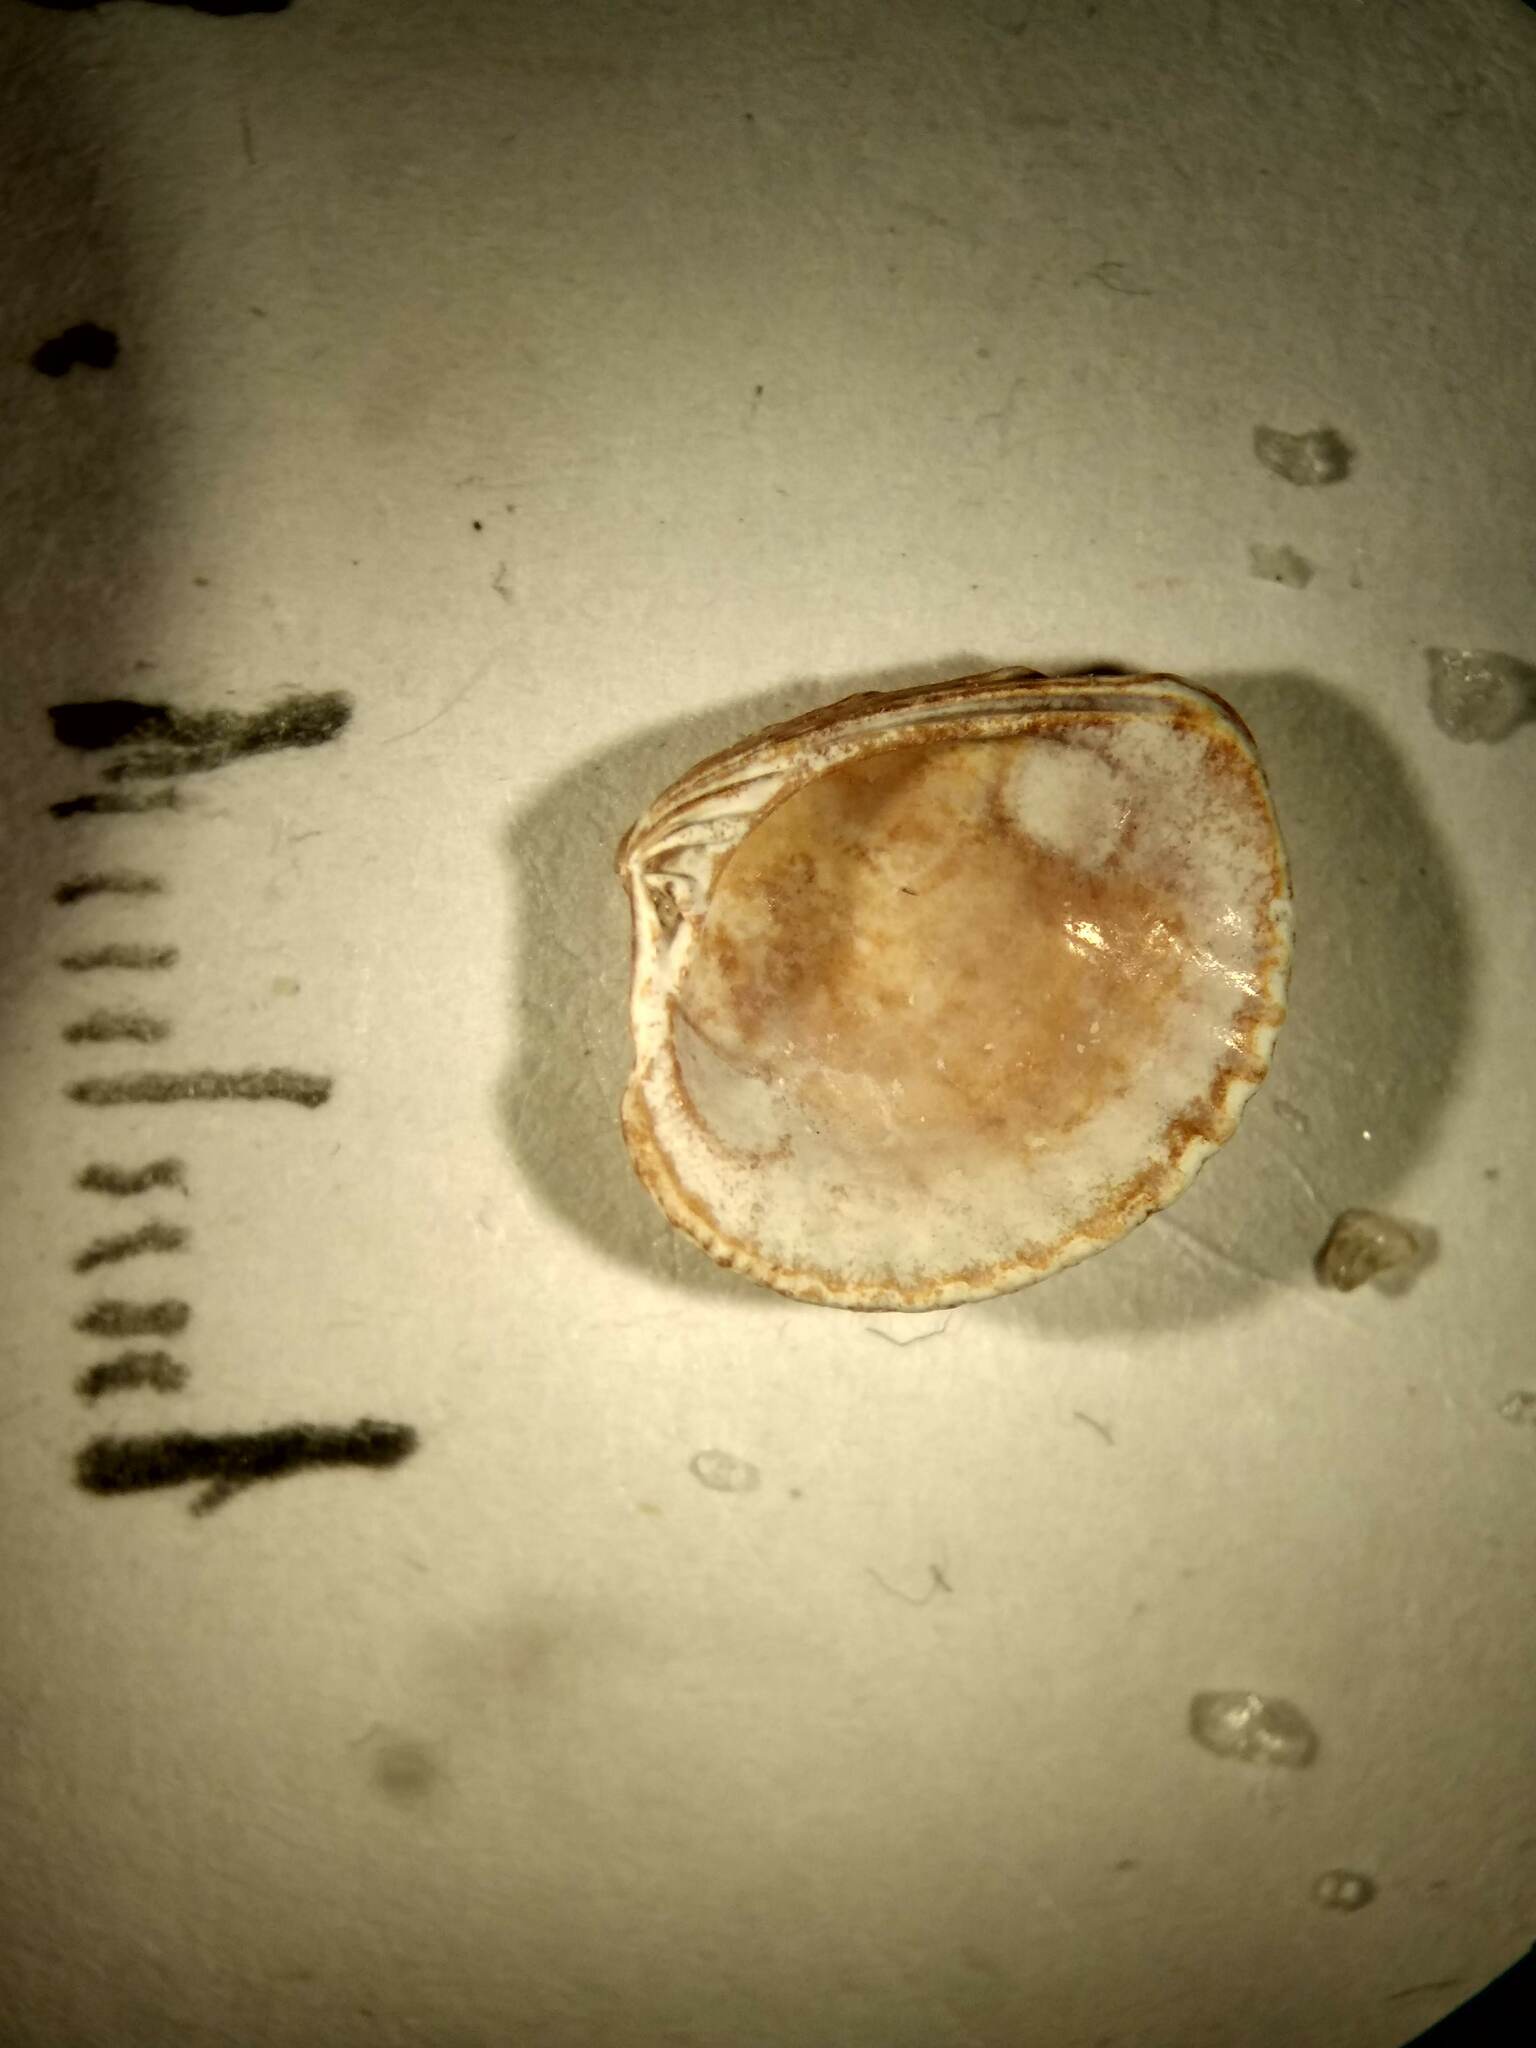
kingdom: Animalia
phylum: Mollusca
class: Bivalvia
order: Venerida
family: Veneridae
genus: Chione
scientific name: Chione elevata
